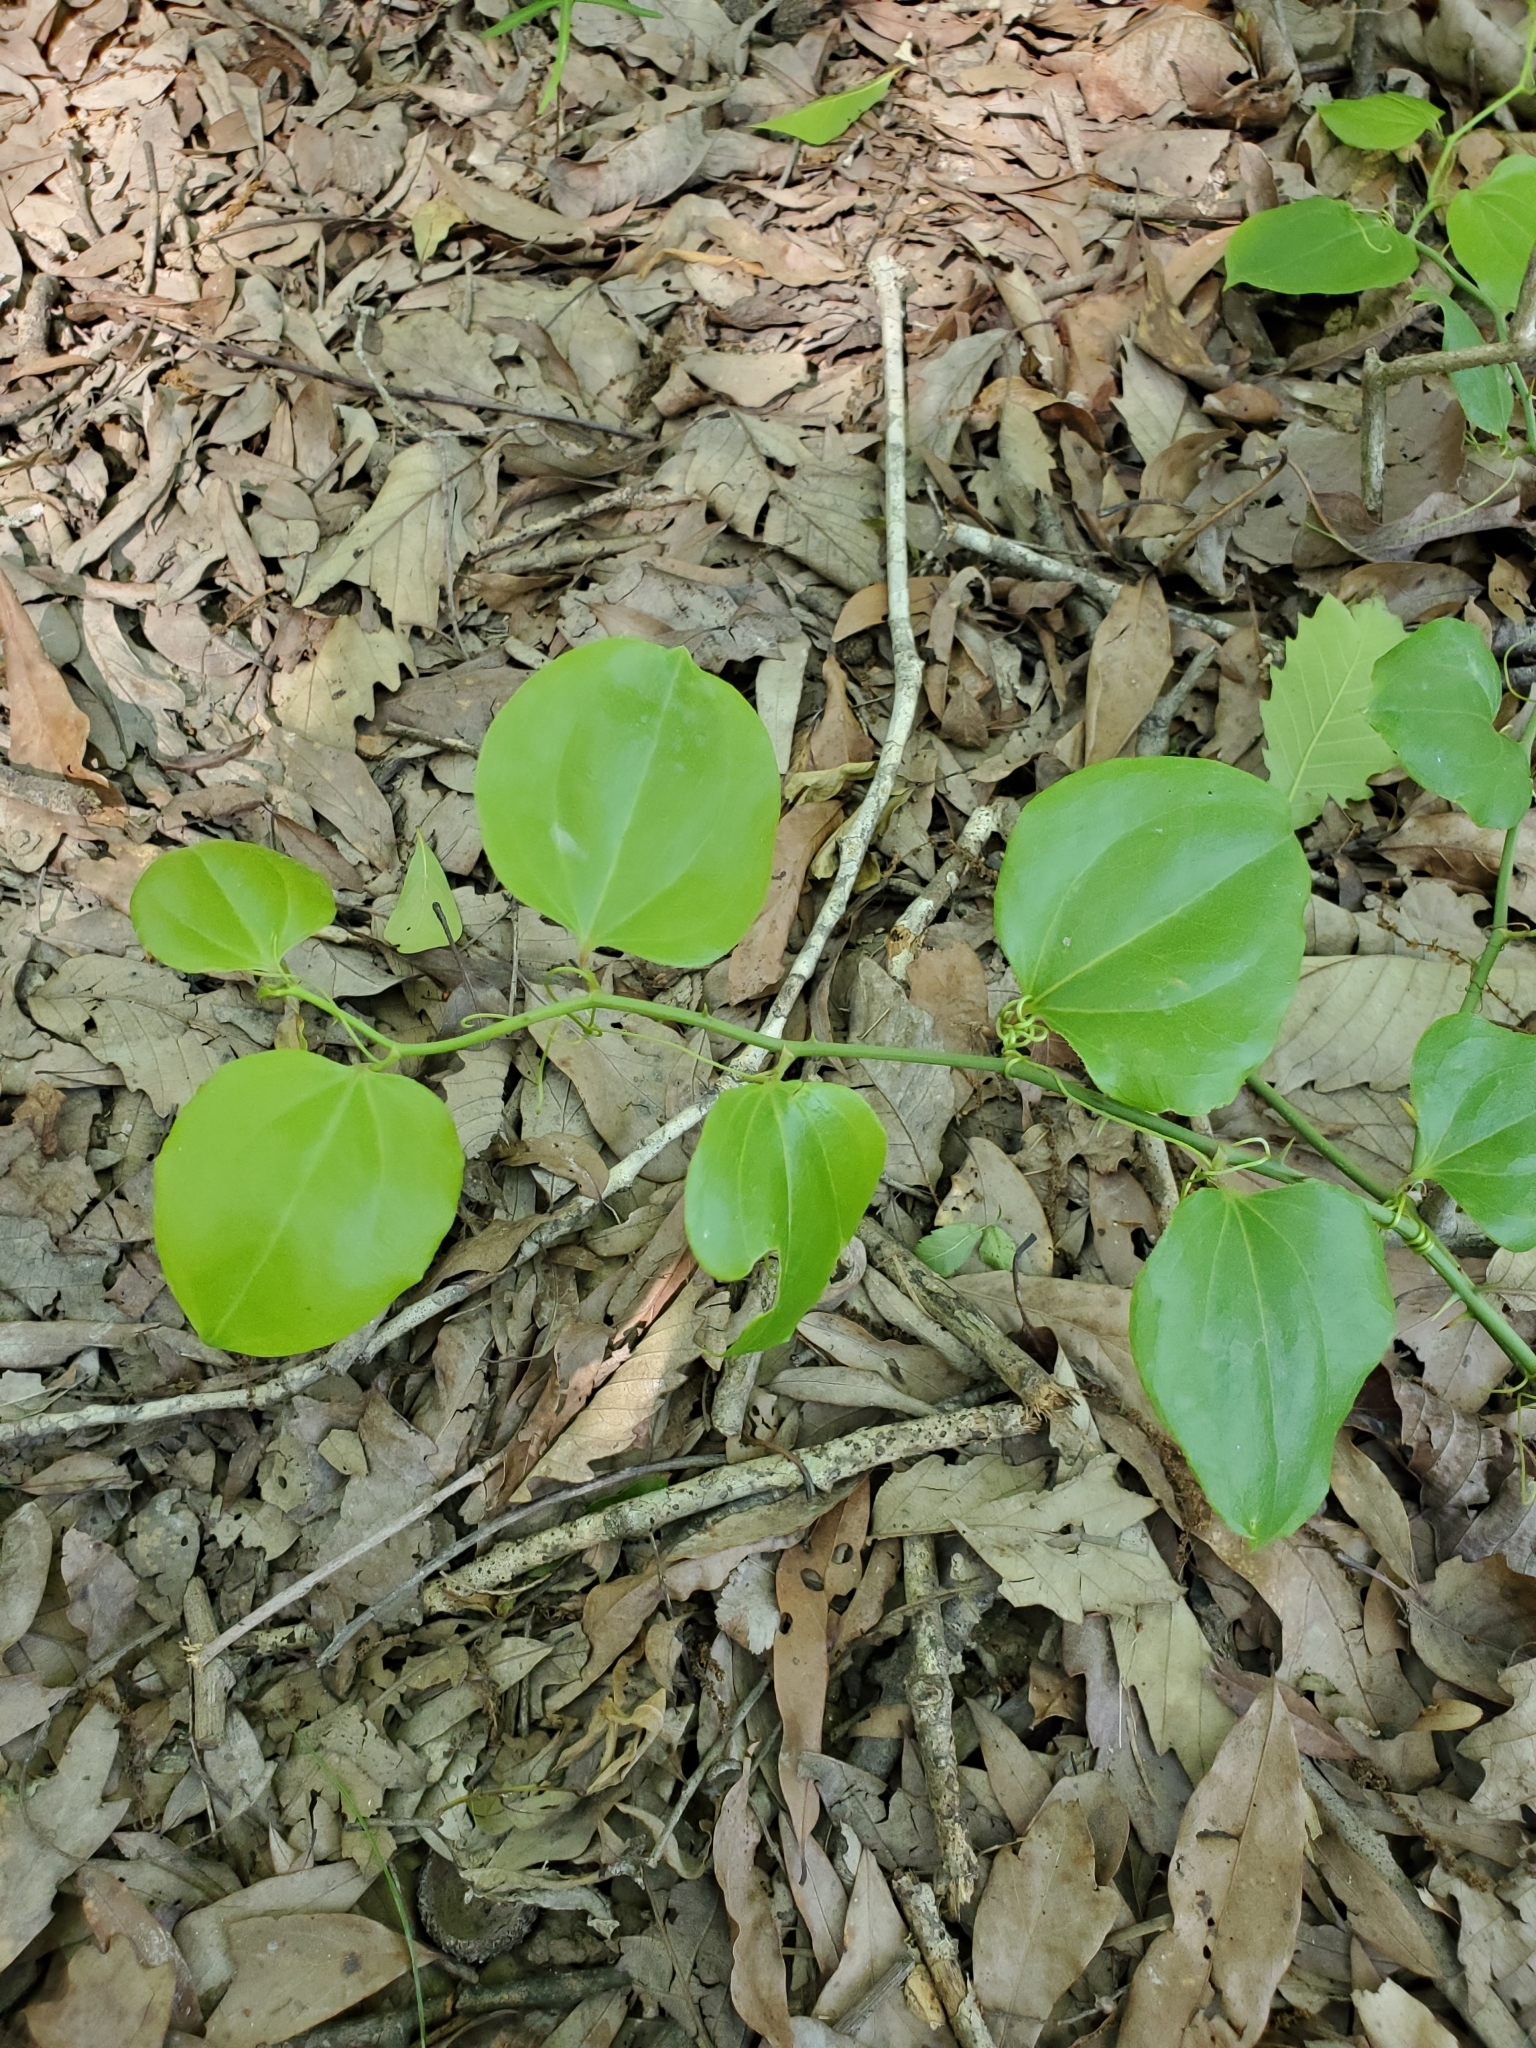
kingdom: Plantae
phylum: Tracheophyta
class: Liliopsida
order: Liliales
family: Smilacaceae
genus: Smilax
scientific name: Smilax rotundifolia
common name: Bullbriar
